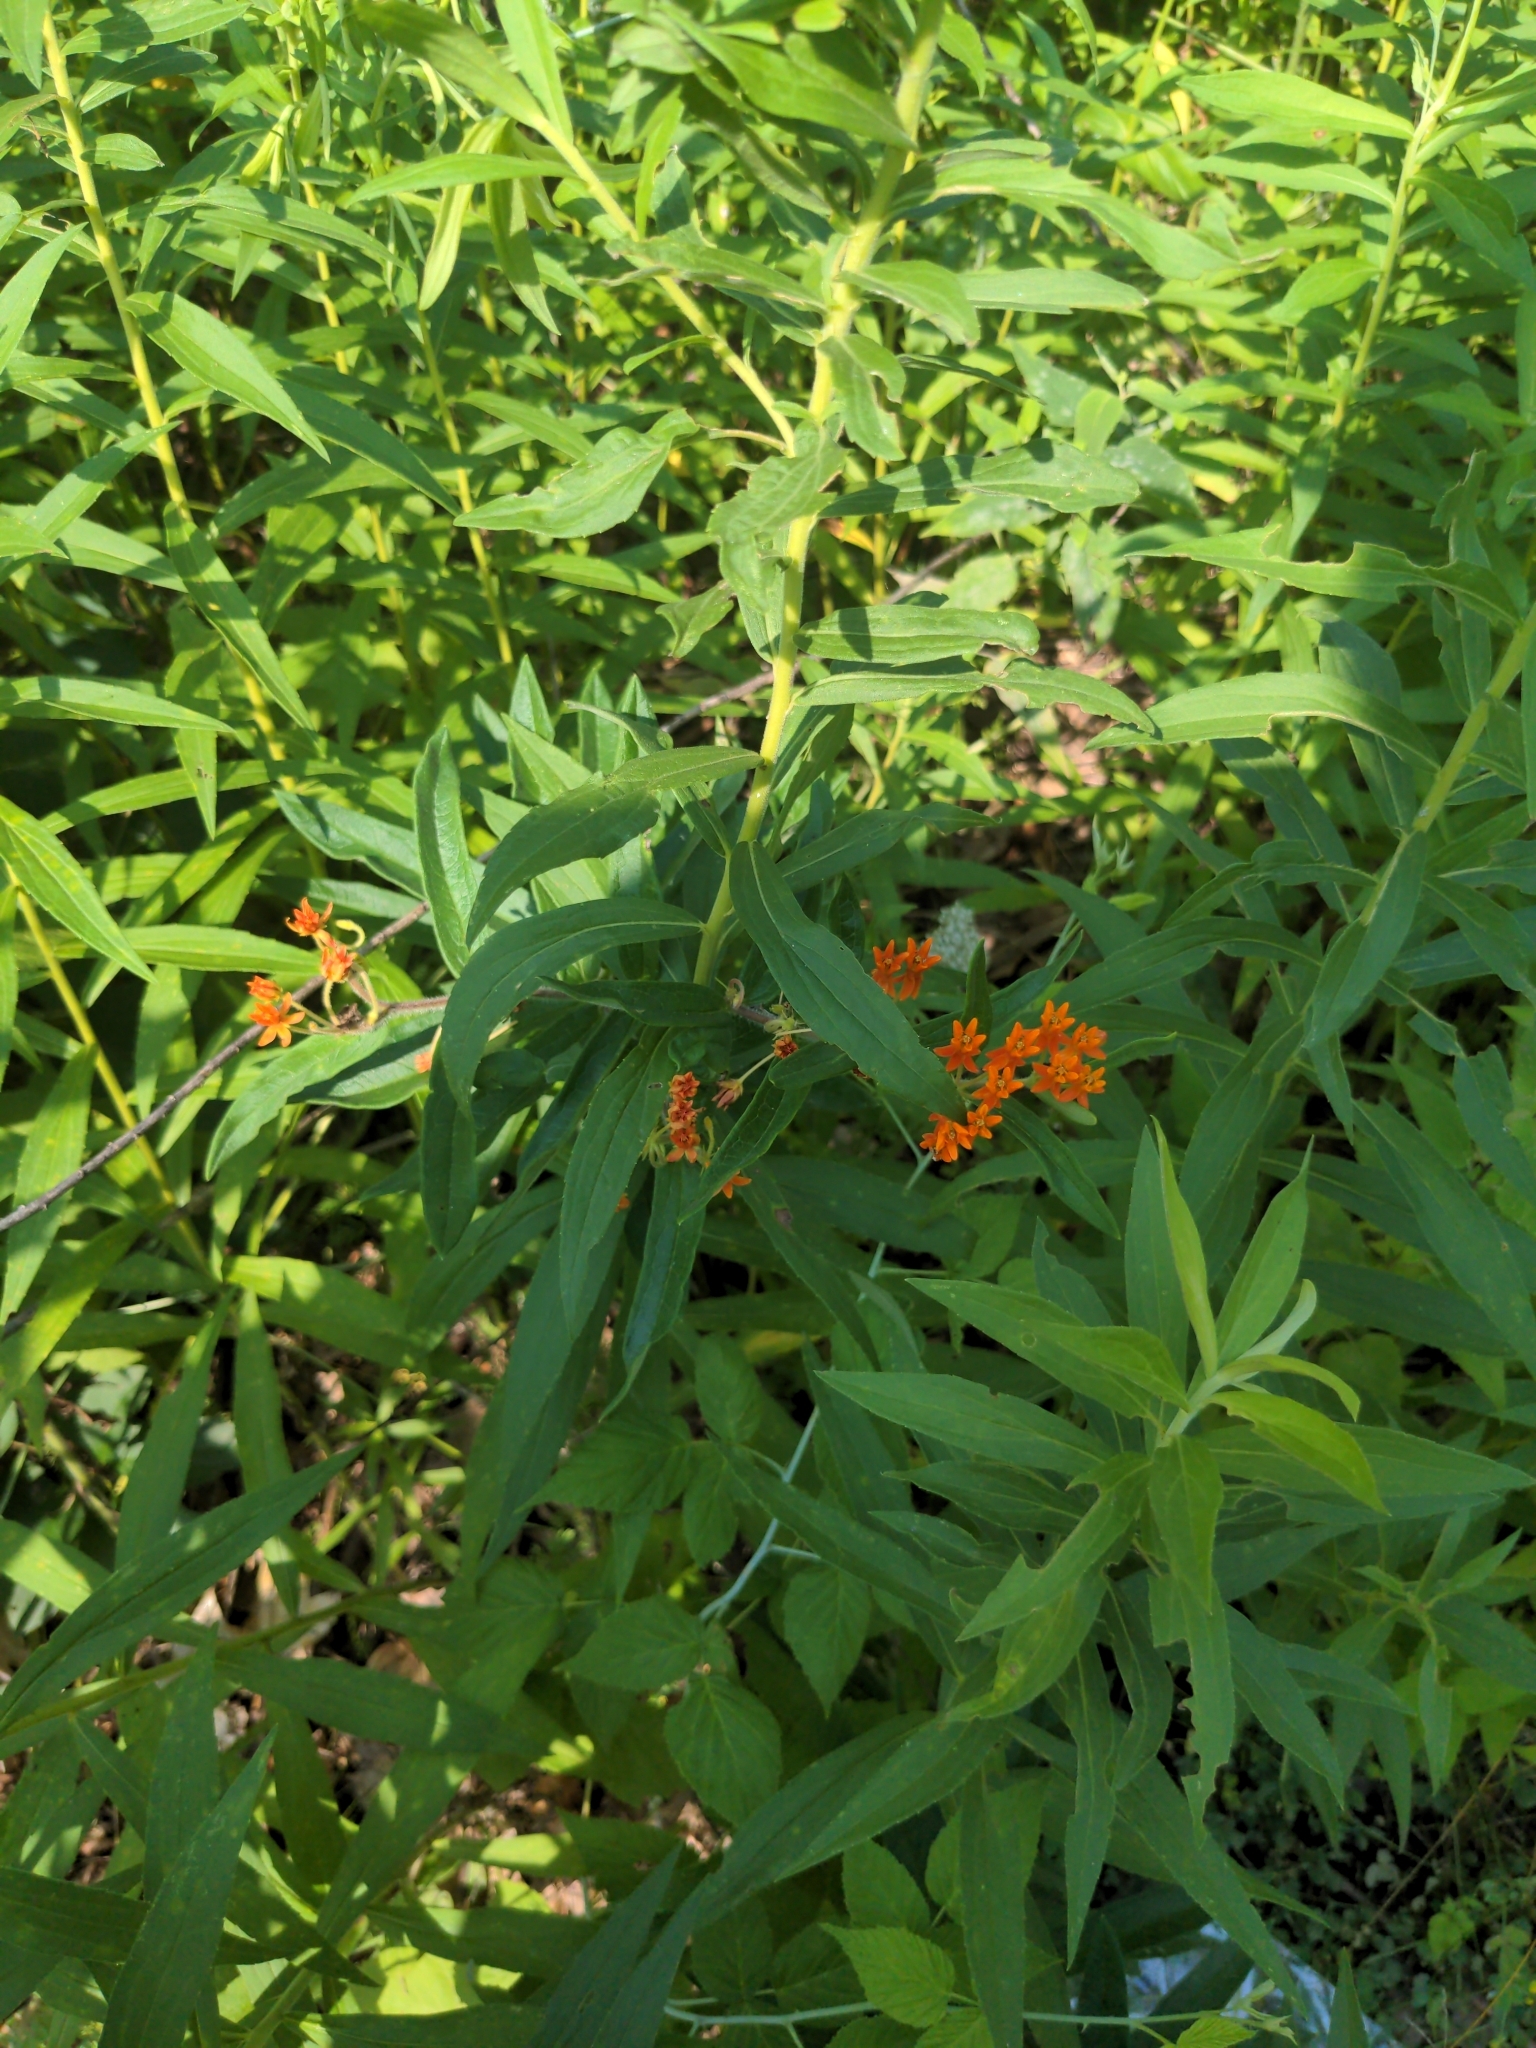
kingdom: Plantae
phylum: Tracheophyta
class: Magnoliopsida
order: Gentianales
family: Apocynaceae
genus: Asclepias
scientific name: Asclepias tuberosa
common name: Butterfly milkweed
